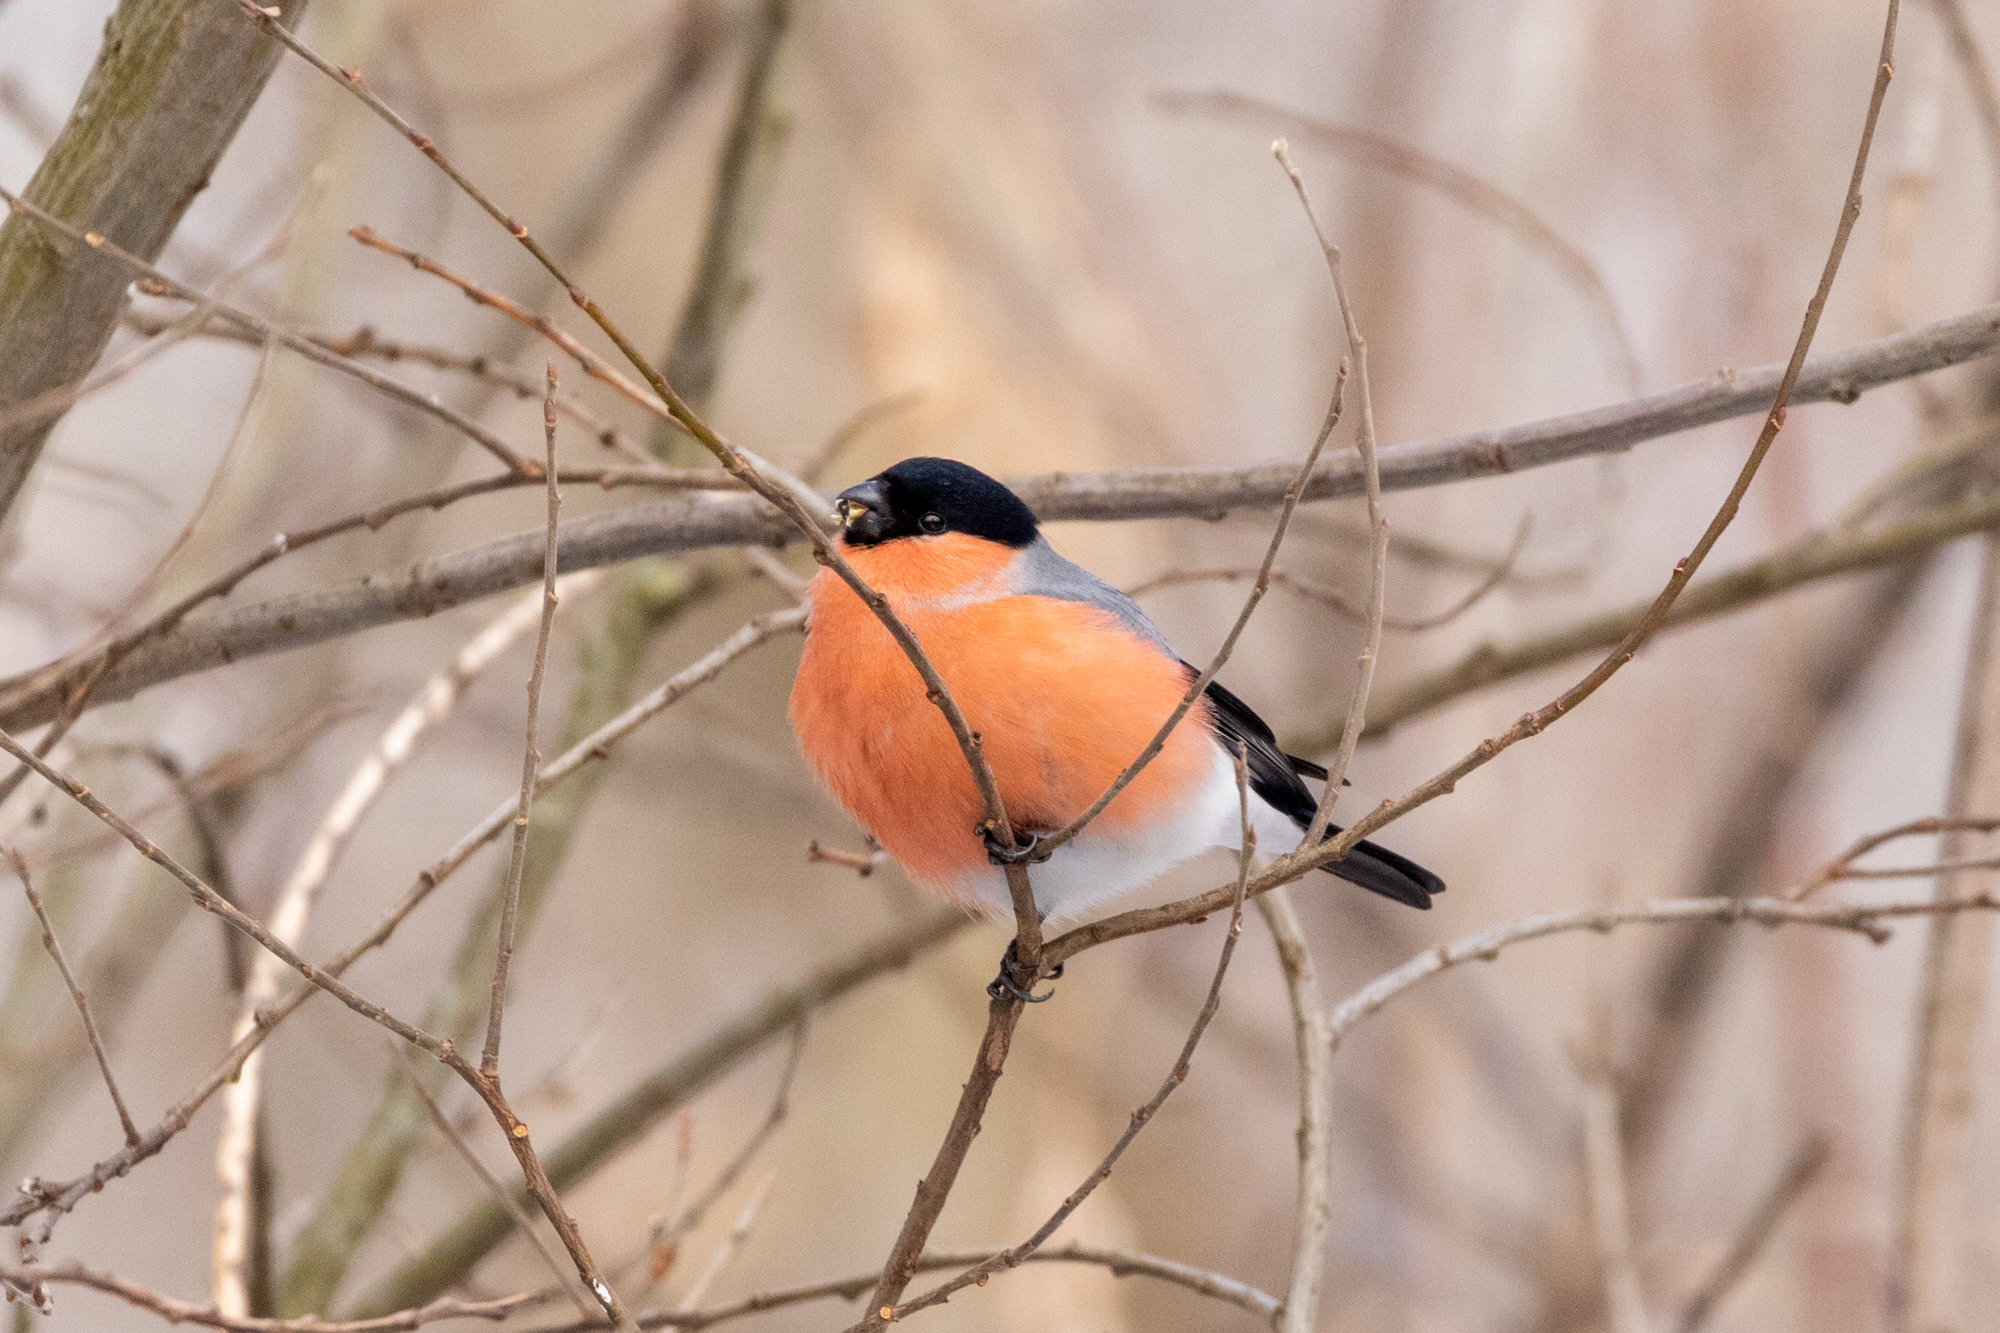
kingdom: Animalia
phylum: Chordata
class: Aves
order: Passeriformes
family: Fringillidae
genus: Pyrrhula
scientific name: Pyrrhula pyrrhula
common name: Eurasian bullfinch
